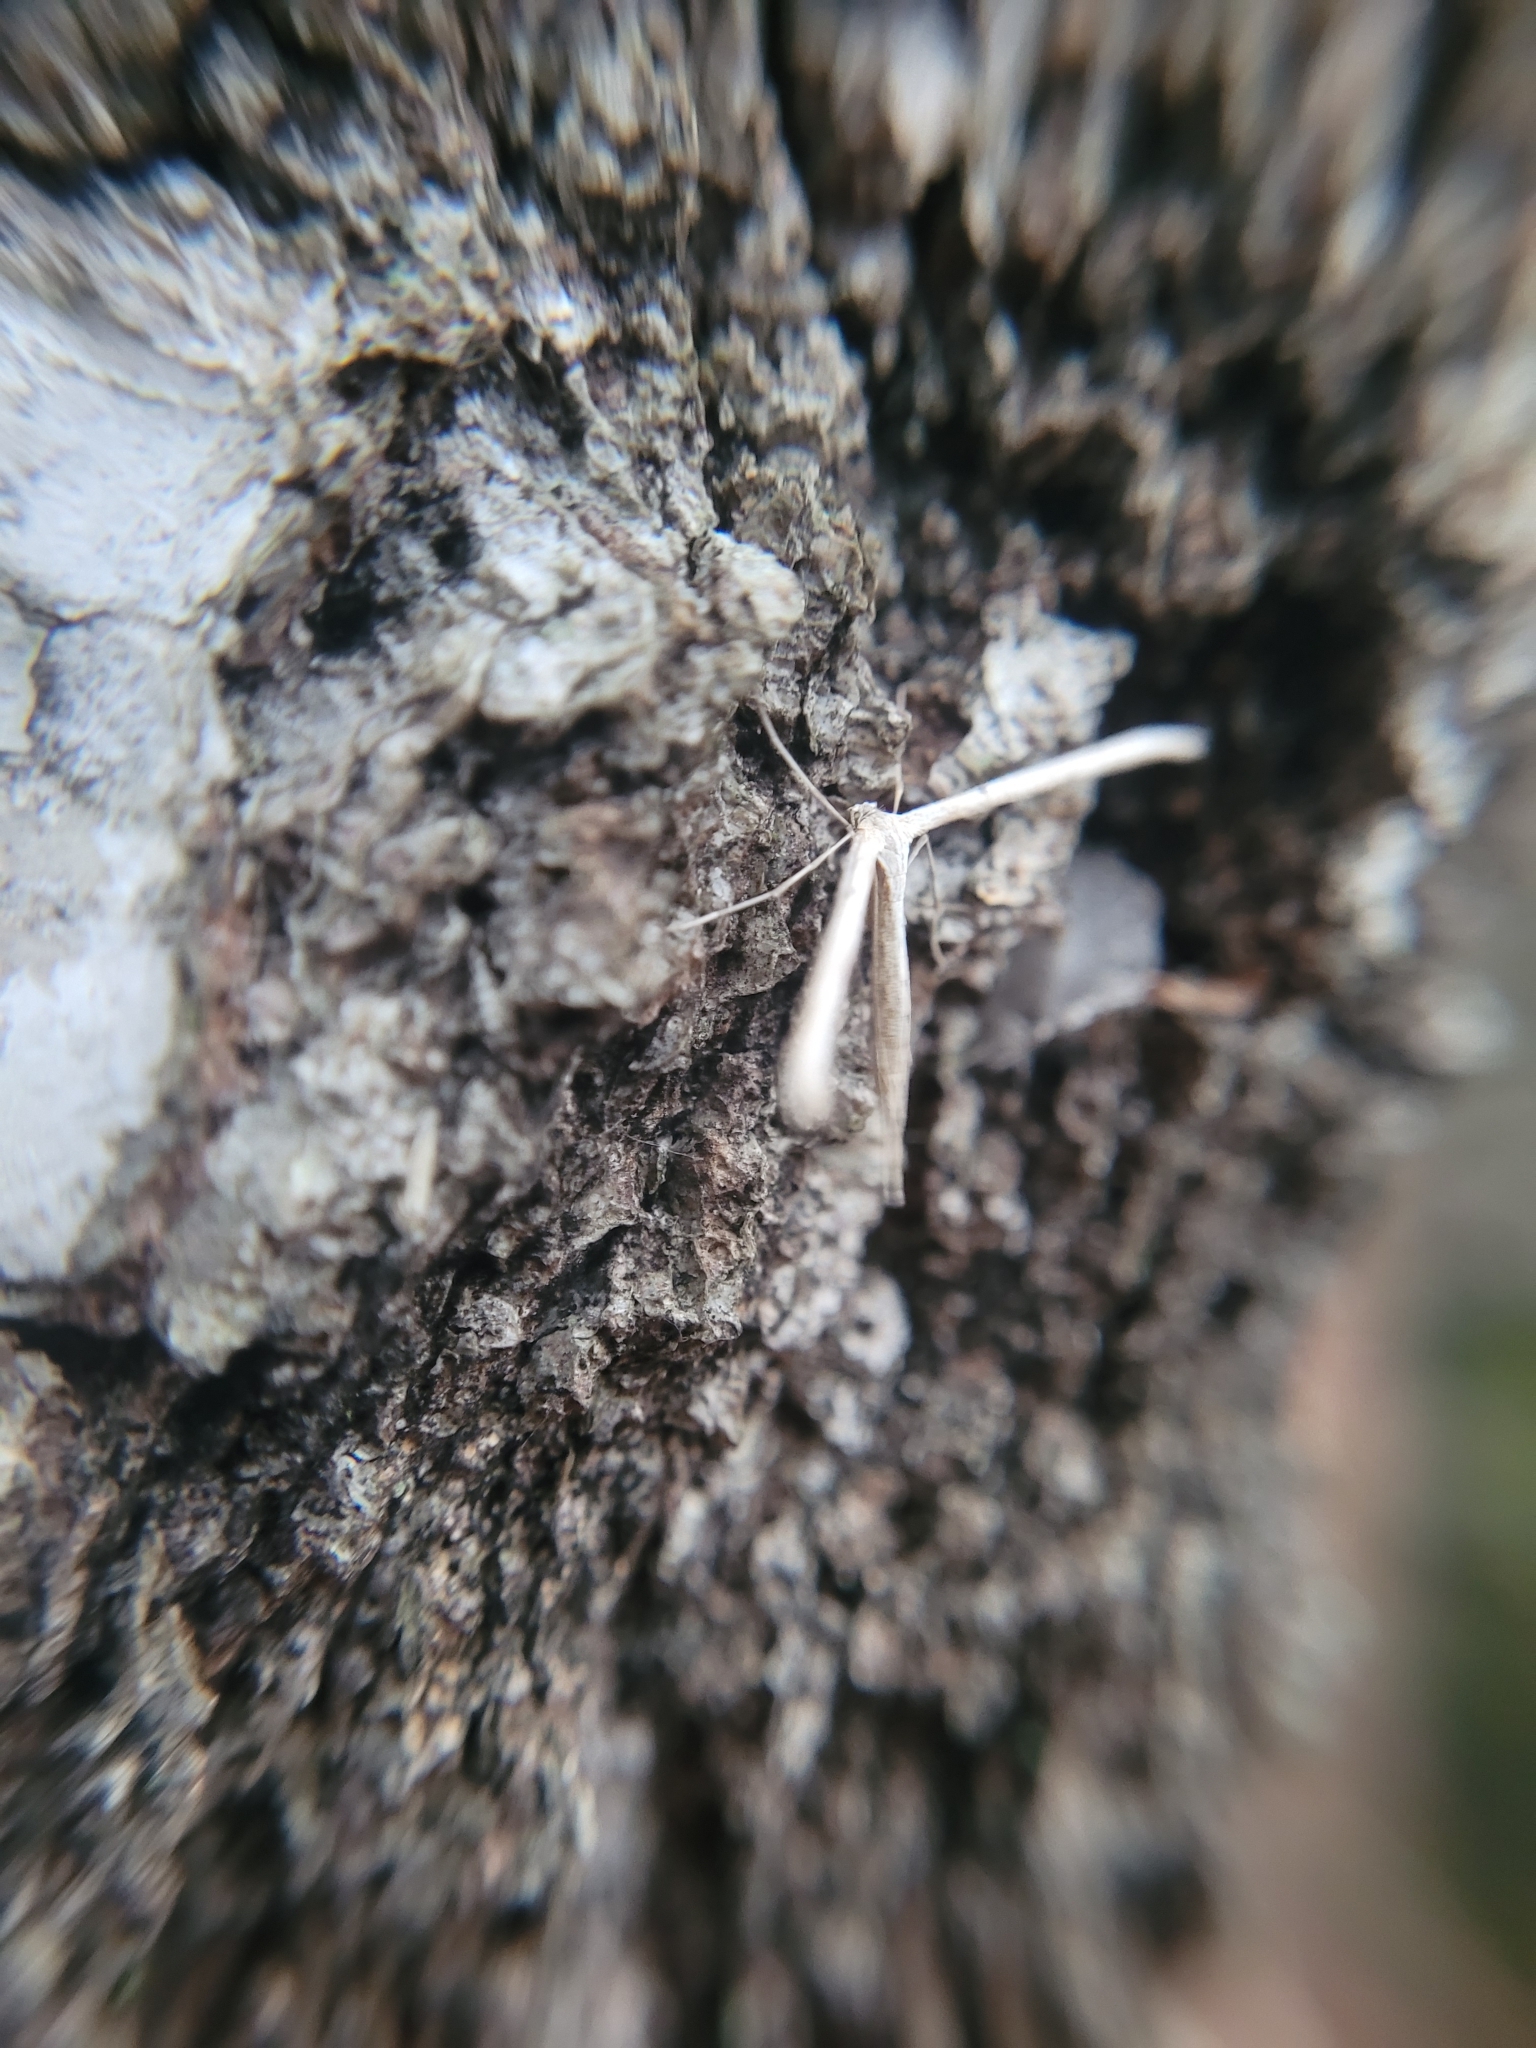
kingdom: Animalia
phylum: Arthropoda
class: Insecta
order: Lepidoptera
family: Pterophoridae
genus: Emmelina
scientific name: Emmelina monodactyla
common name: Common plume
